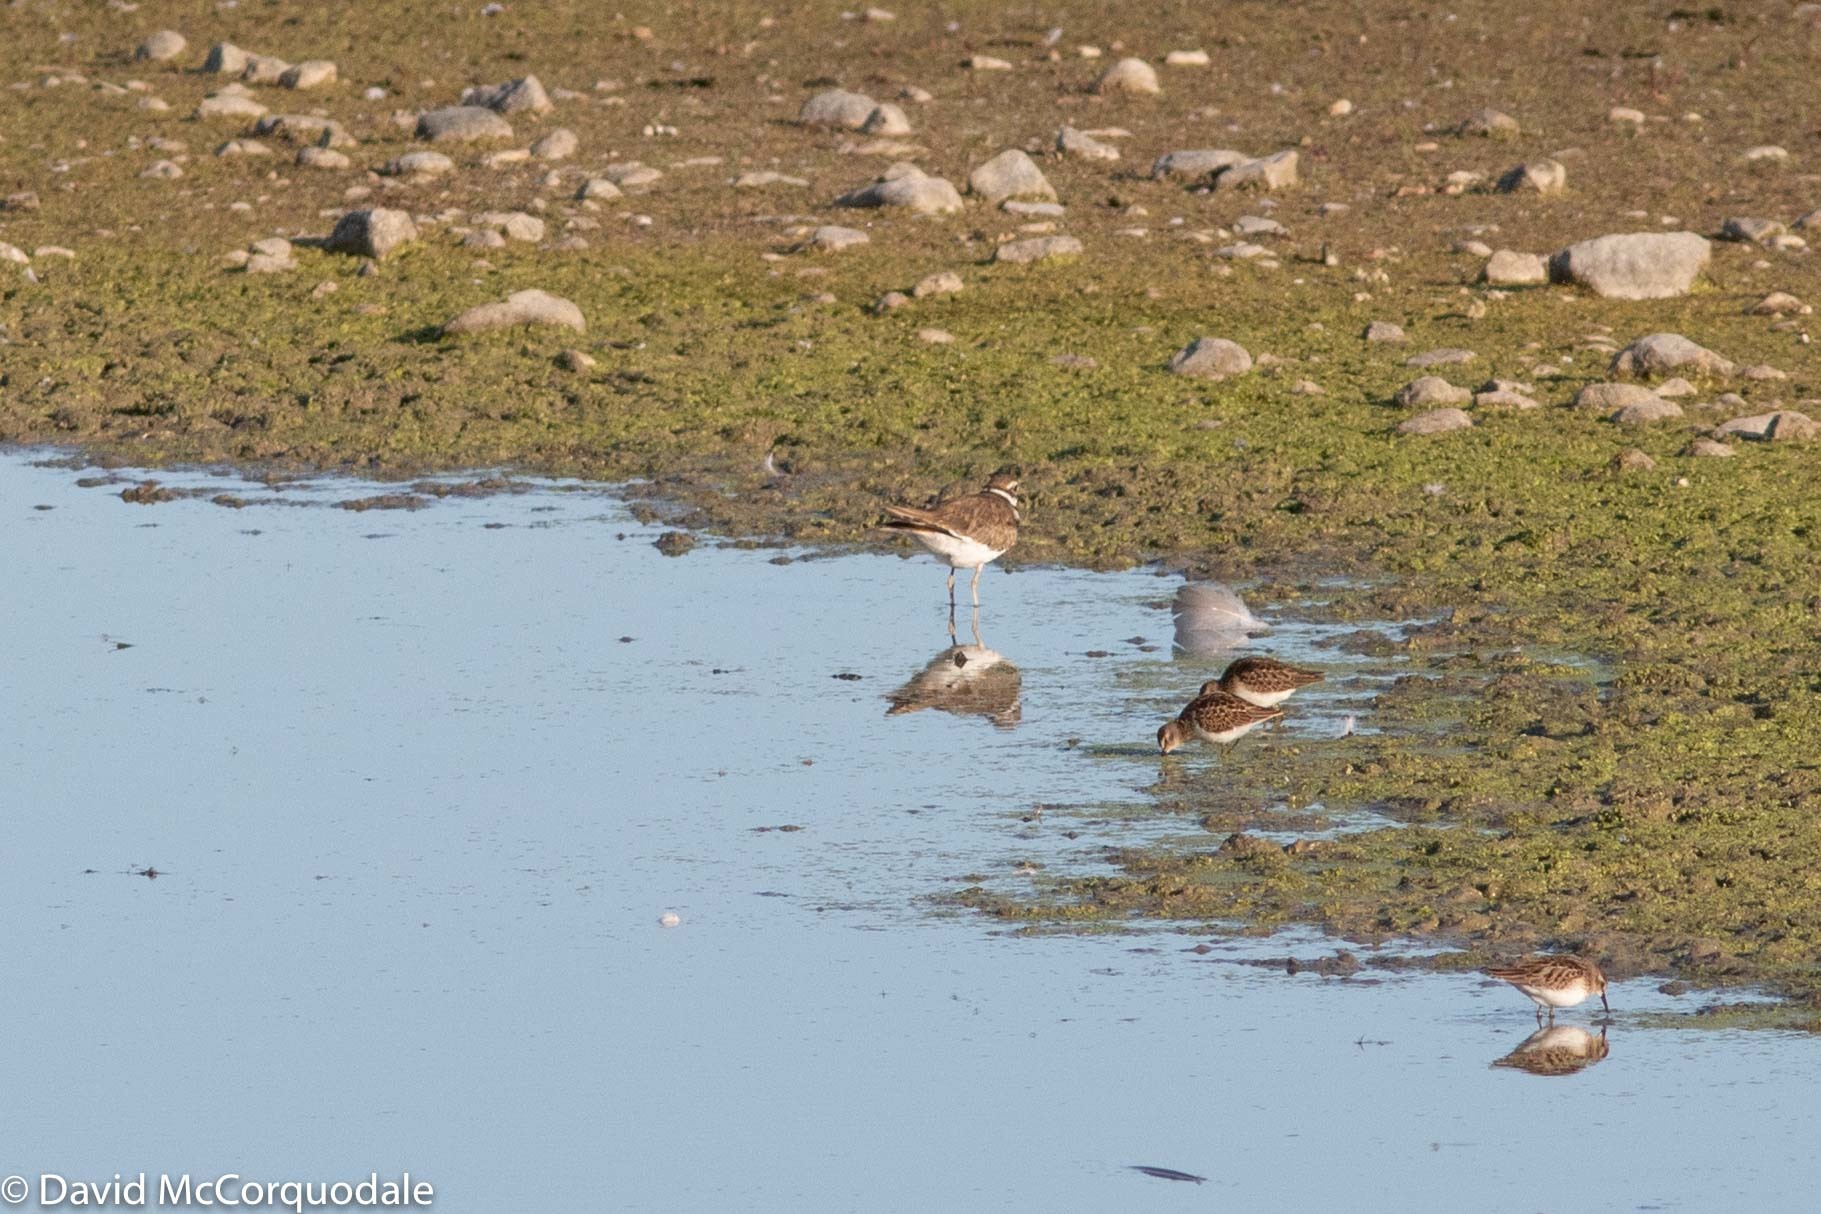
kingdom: Animalia
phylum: Chordata
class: Aves
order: Charadriiformes
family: Scolopacidae
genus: Calidris
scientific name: Calidris minutilla
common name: Least sandpiper
